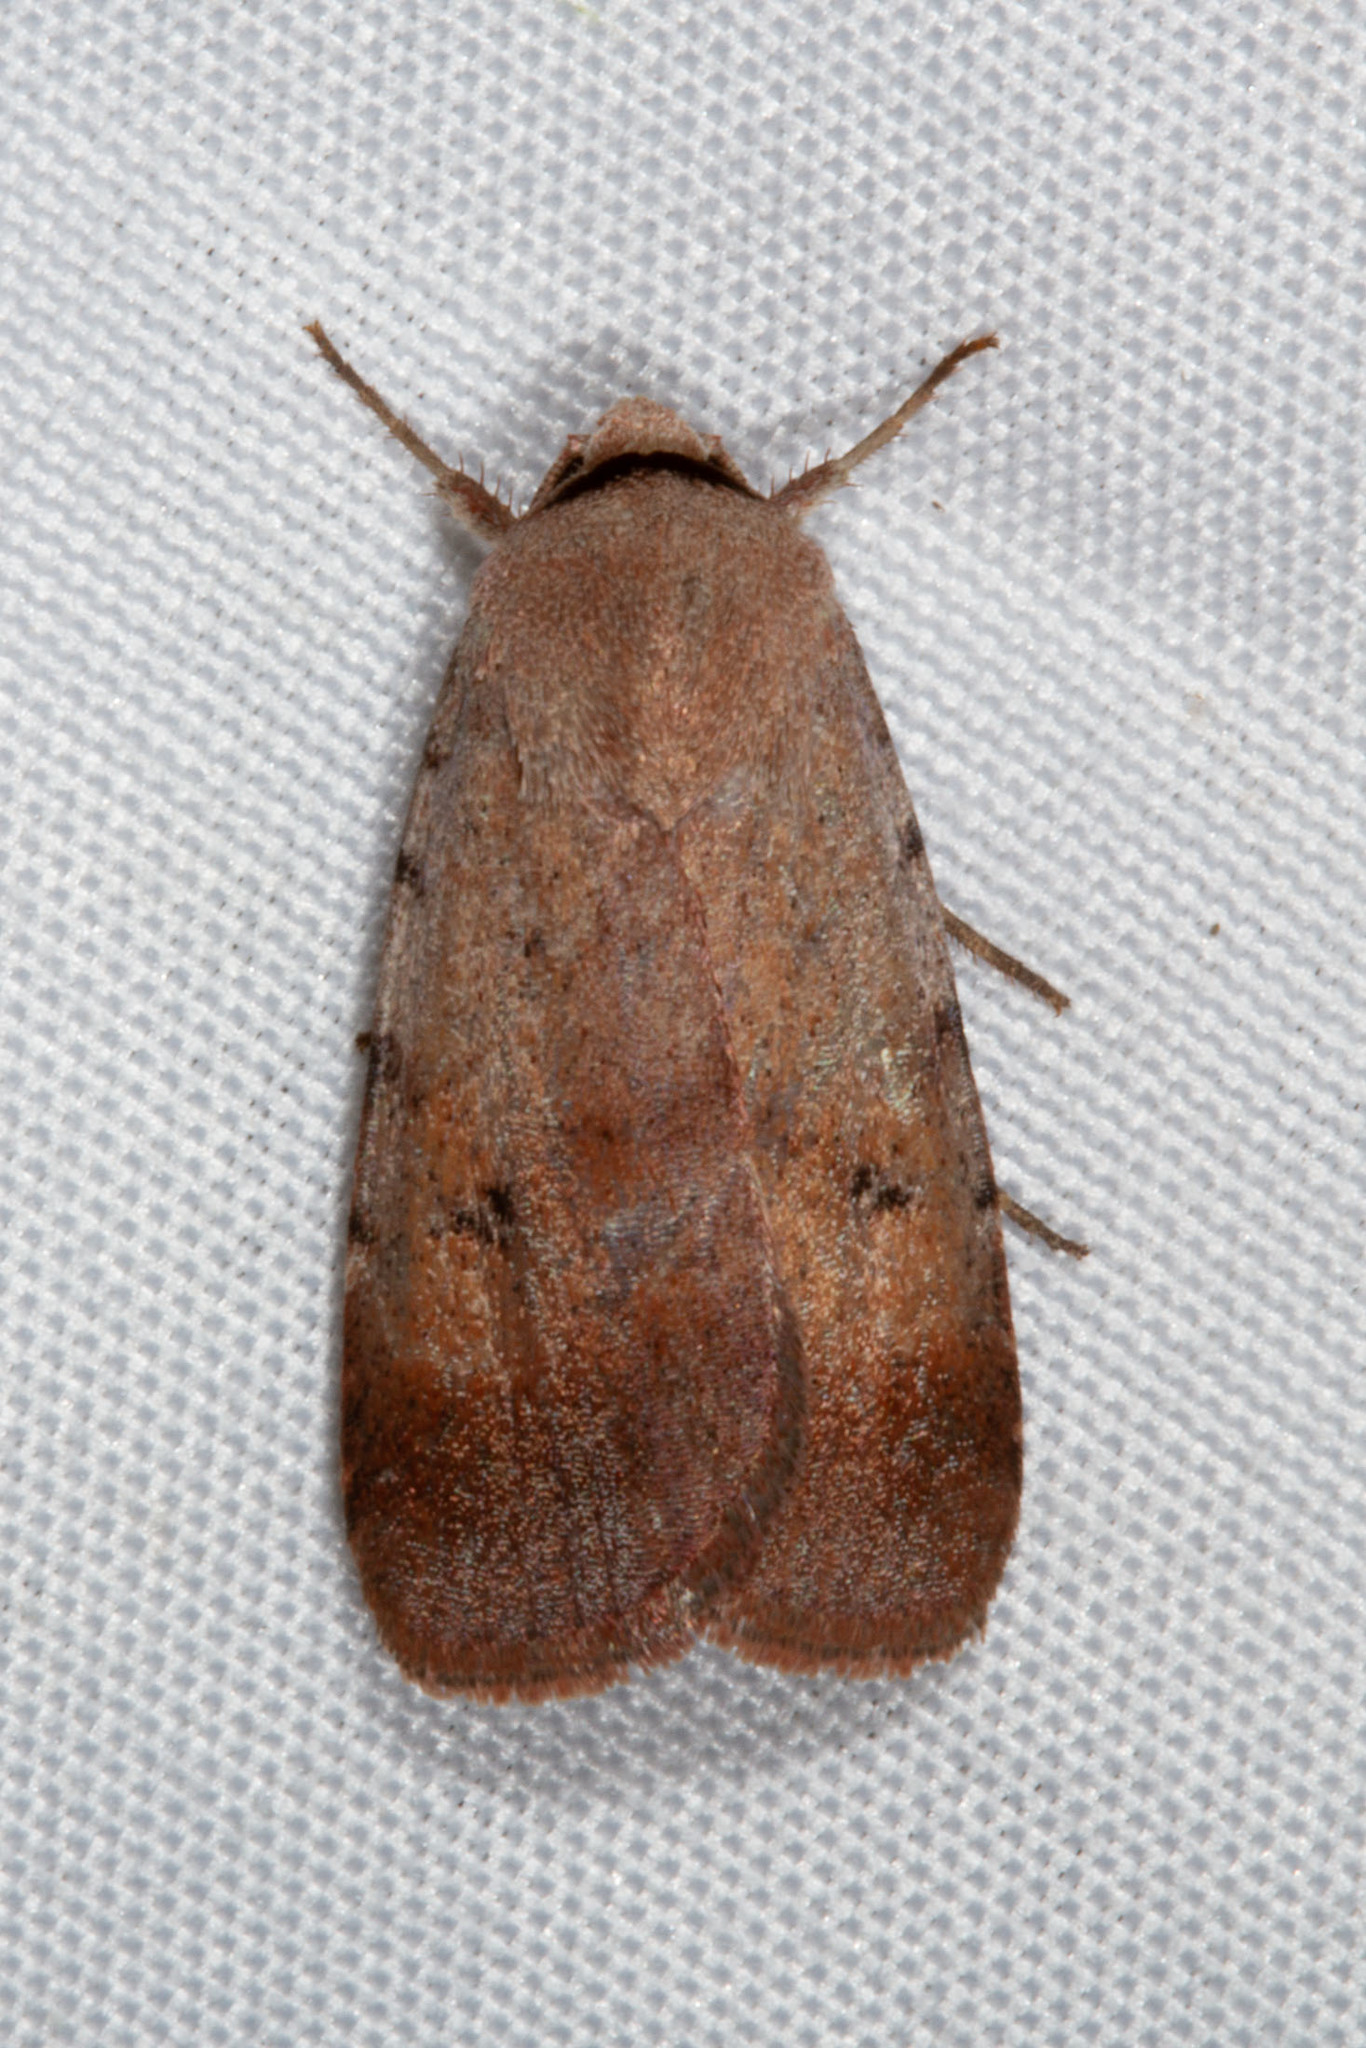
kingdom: Animalia
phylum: Arthropoda
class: Insecta
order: Lepidoptera
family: Noctuidae
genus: Anicla
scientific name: Anicla illapsa
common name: Snowy dart
